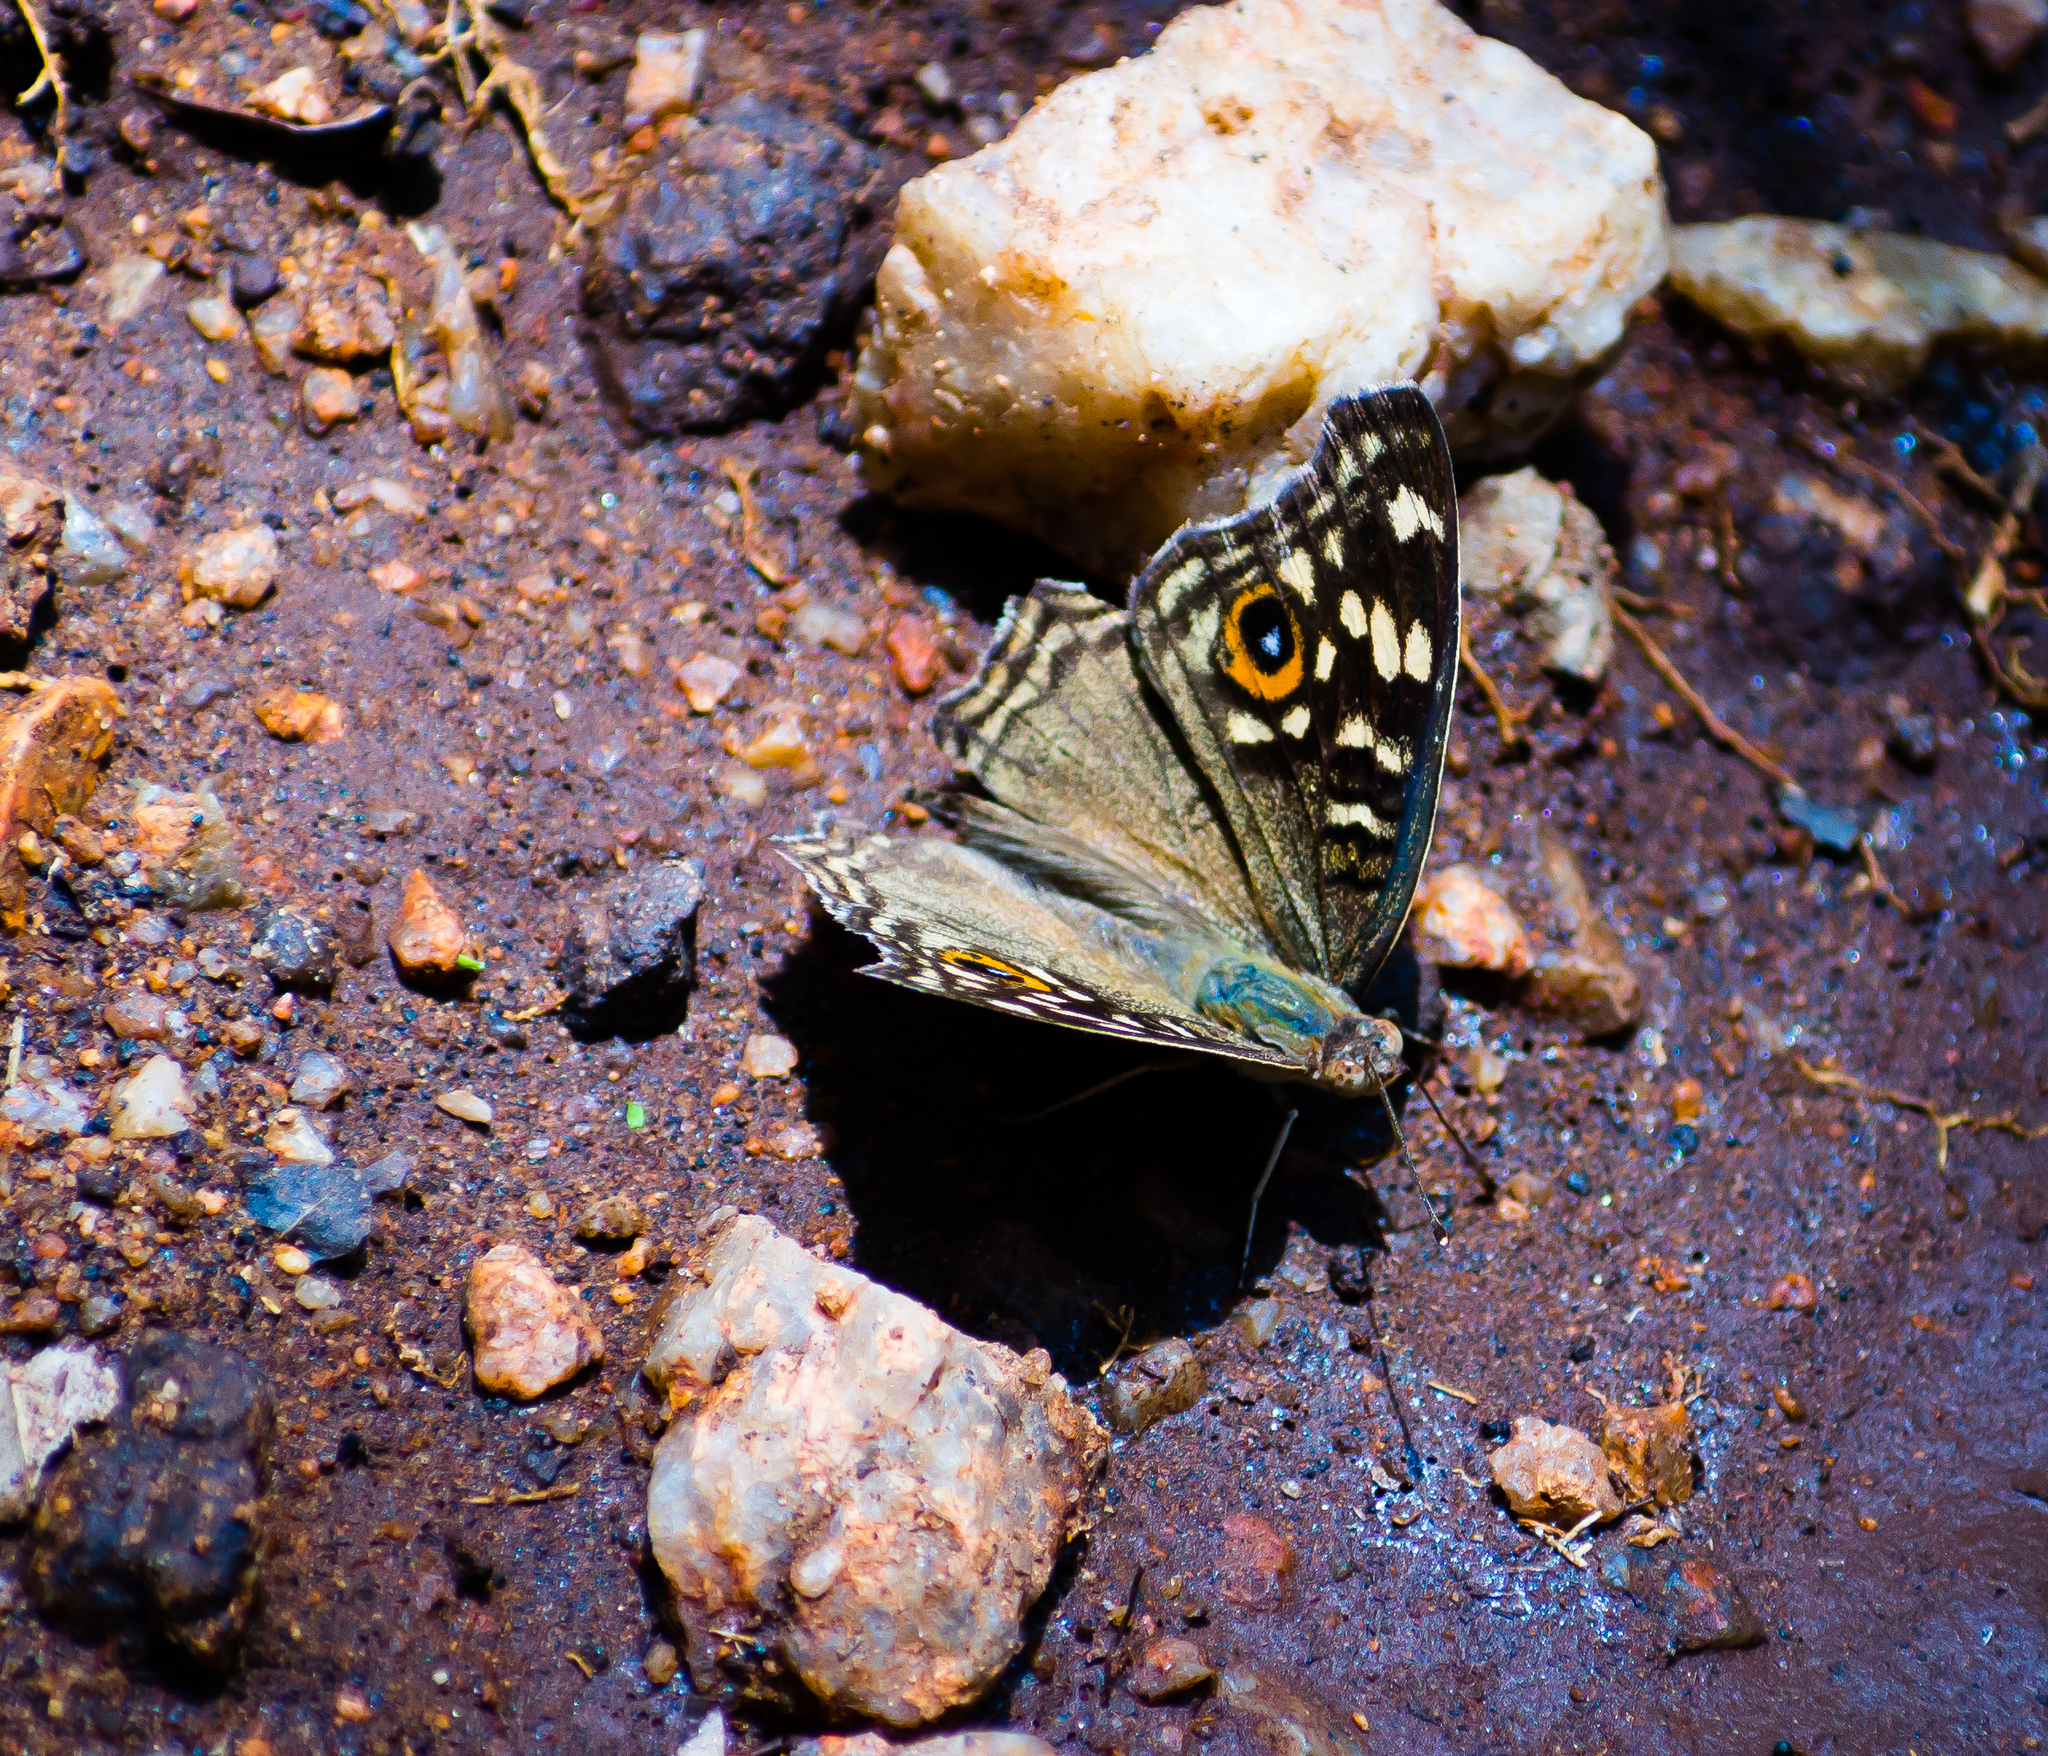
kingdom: Animalia
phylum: Arthropoda
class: Insecta
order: Lepidoptera
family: Nymphalidae
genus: Junonia
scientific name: Junonia lemonias
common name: Lemon pansy
